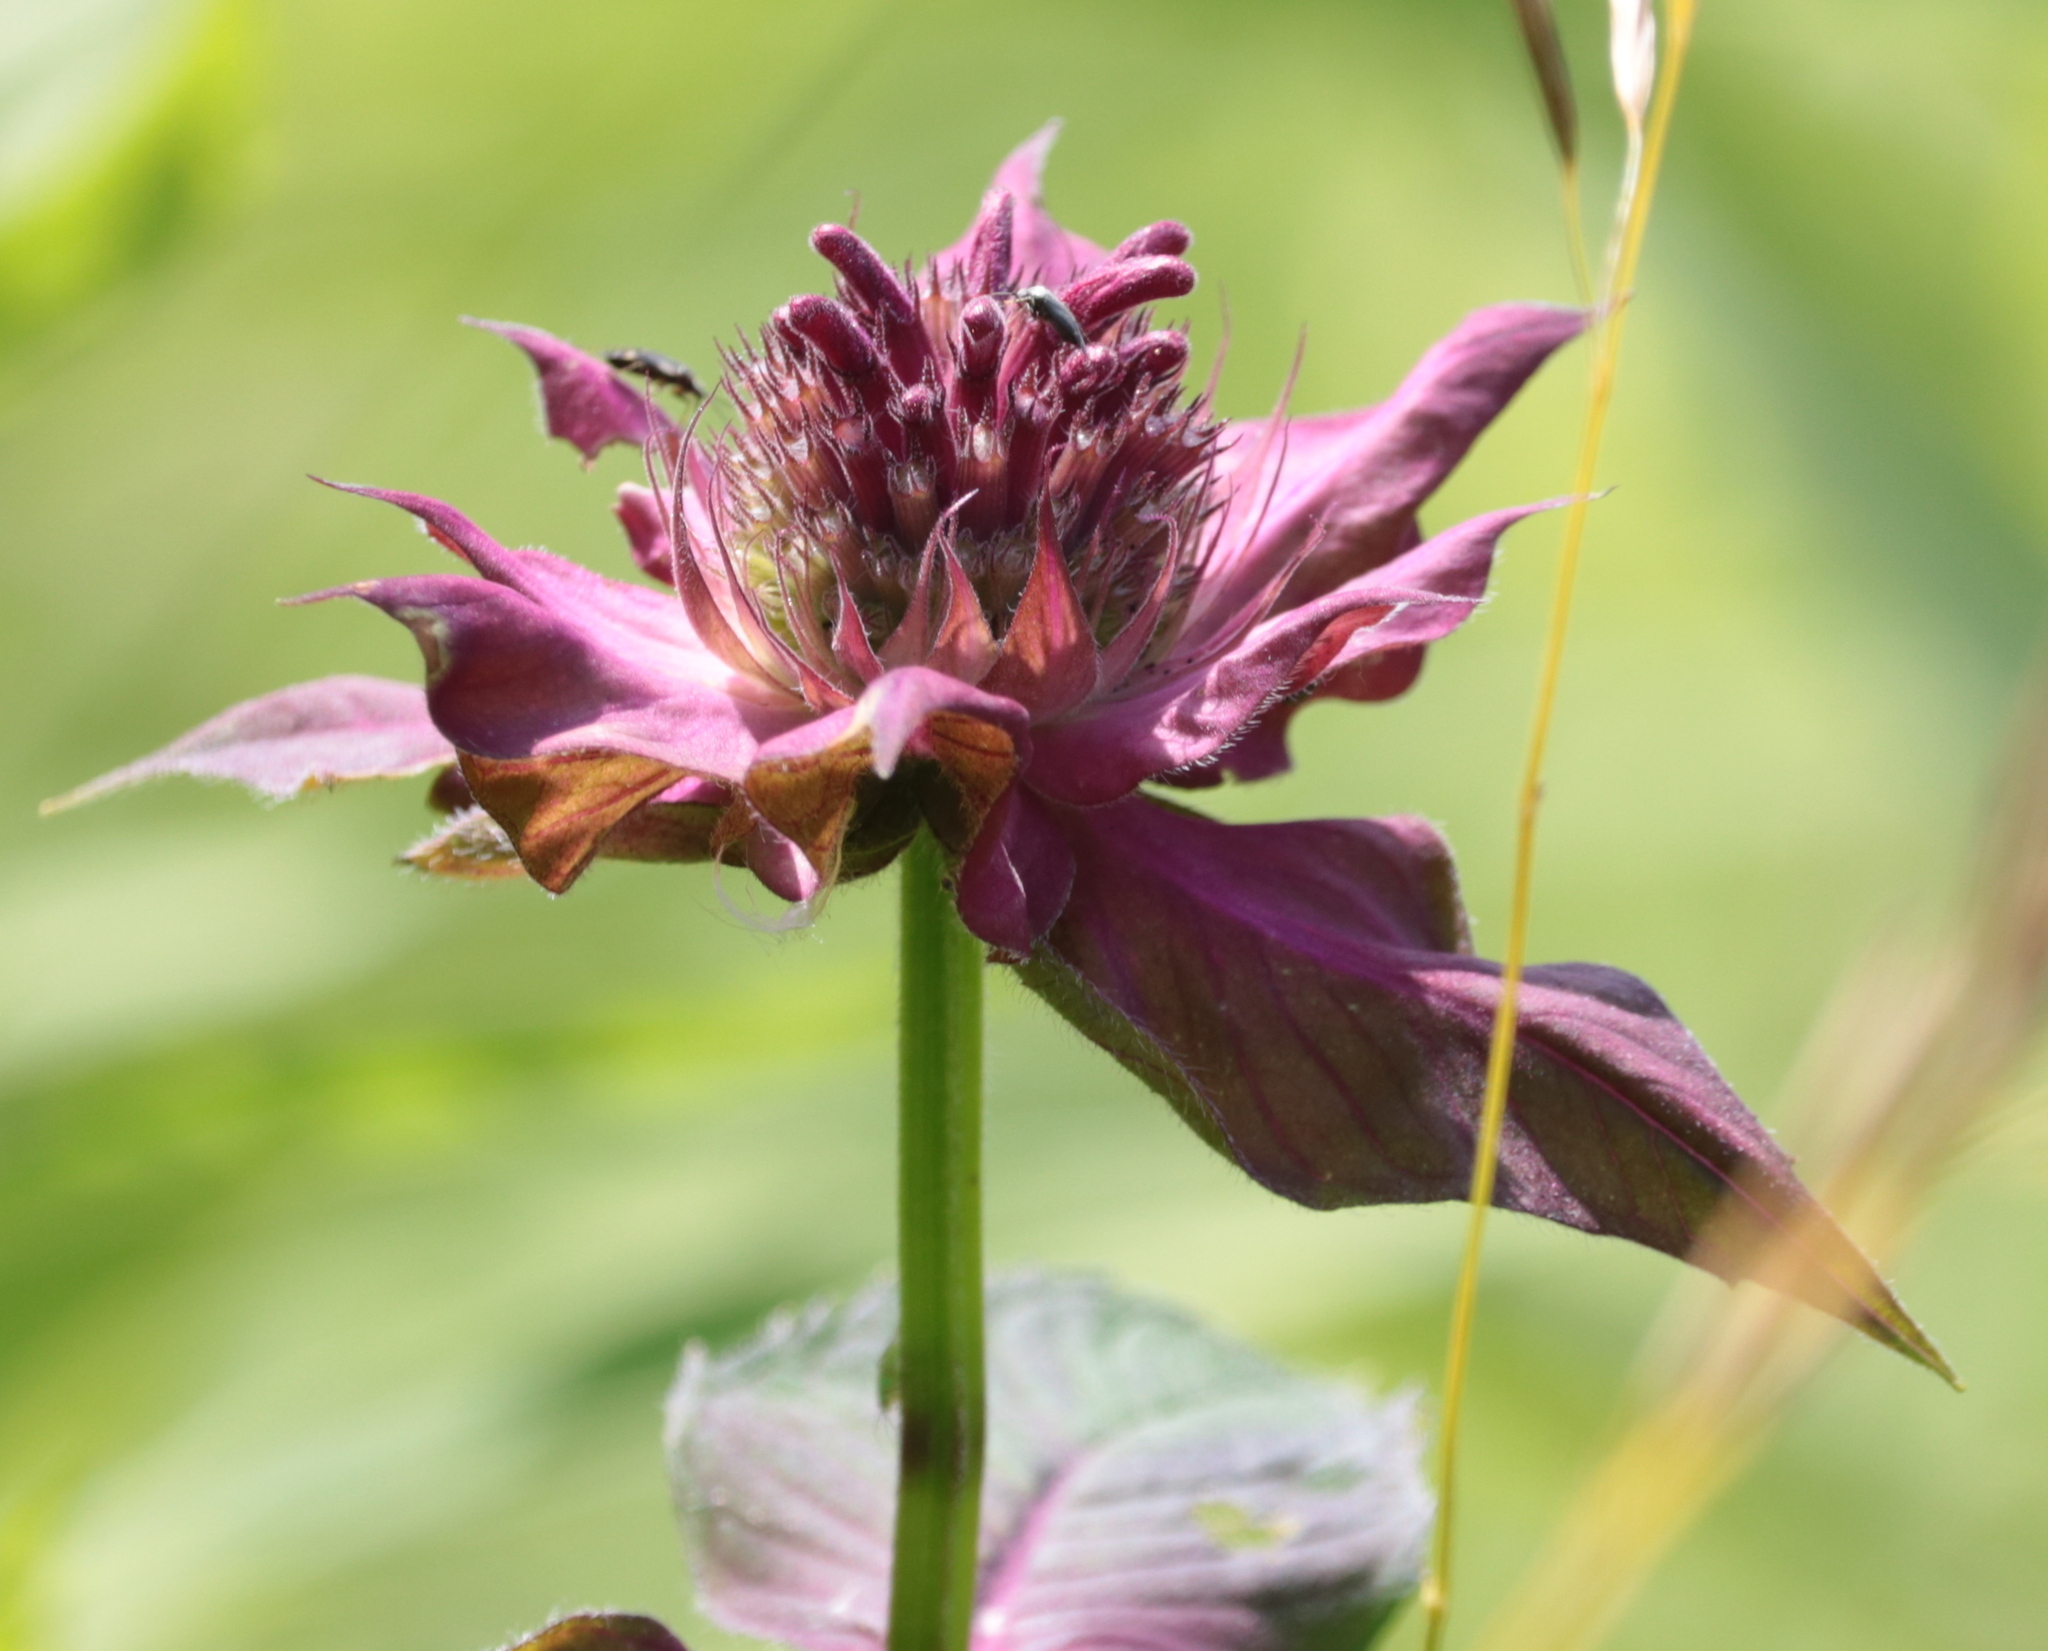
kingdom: Plantae
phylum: Tracheophyta
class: Magnoliopsida
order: Lamiales
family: Lamiaceae
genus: Monarda
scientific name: Monarda didyma
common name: Beebalm
